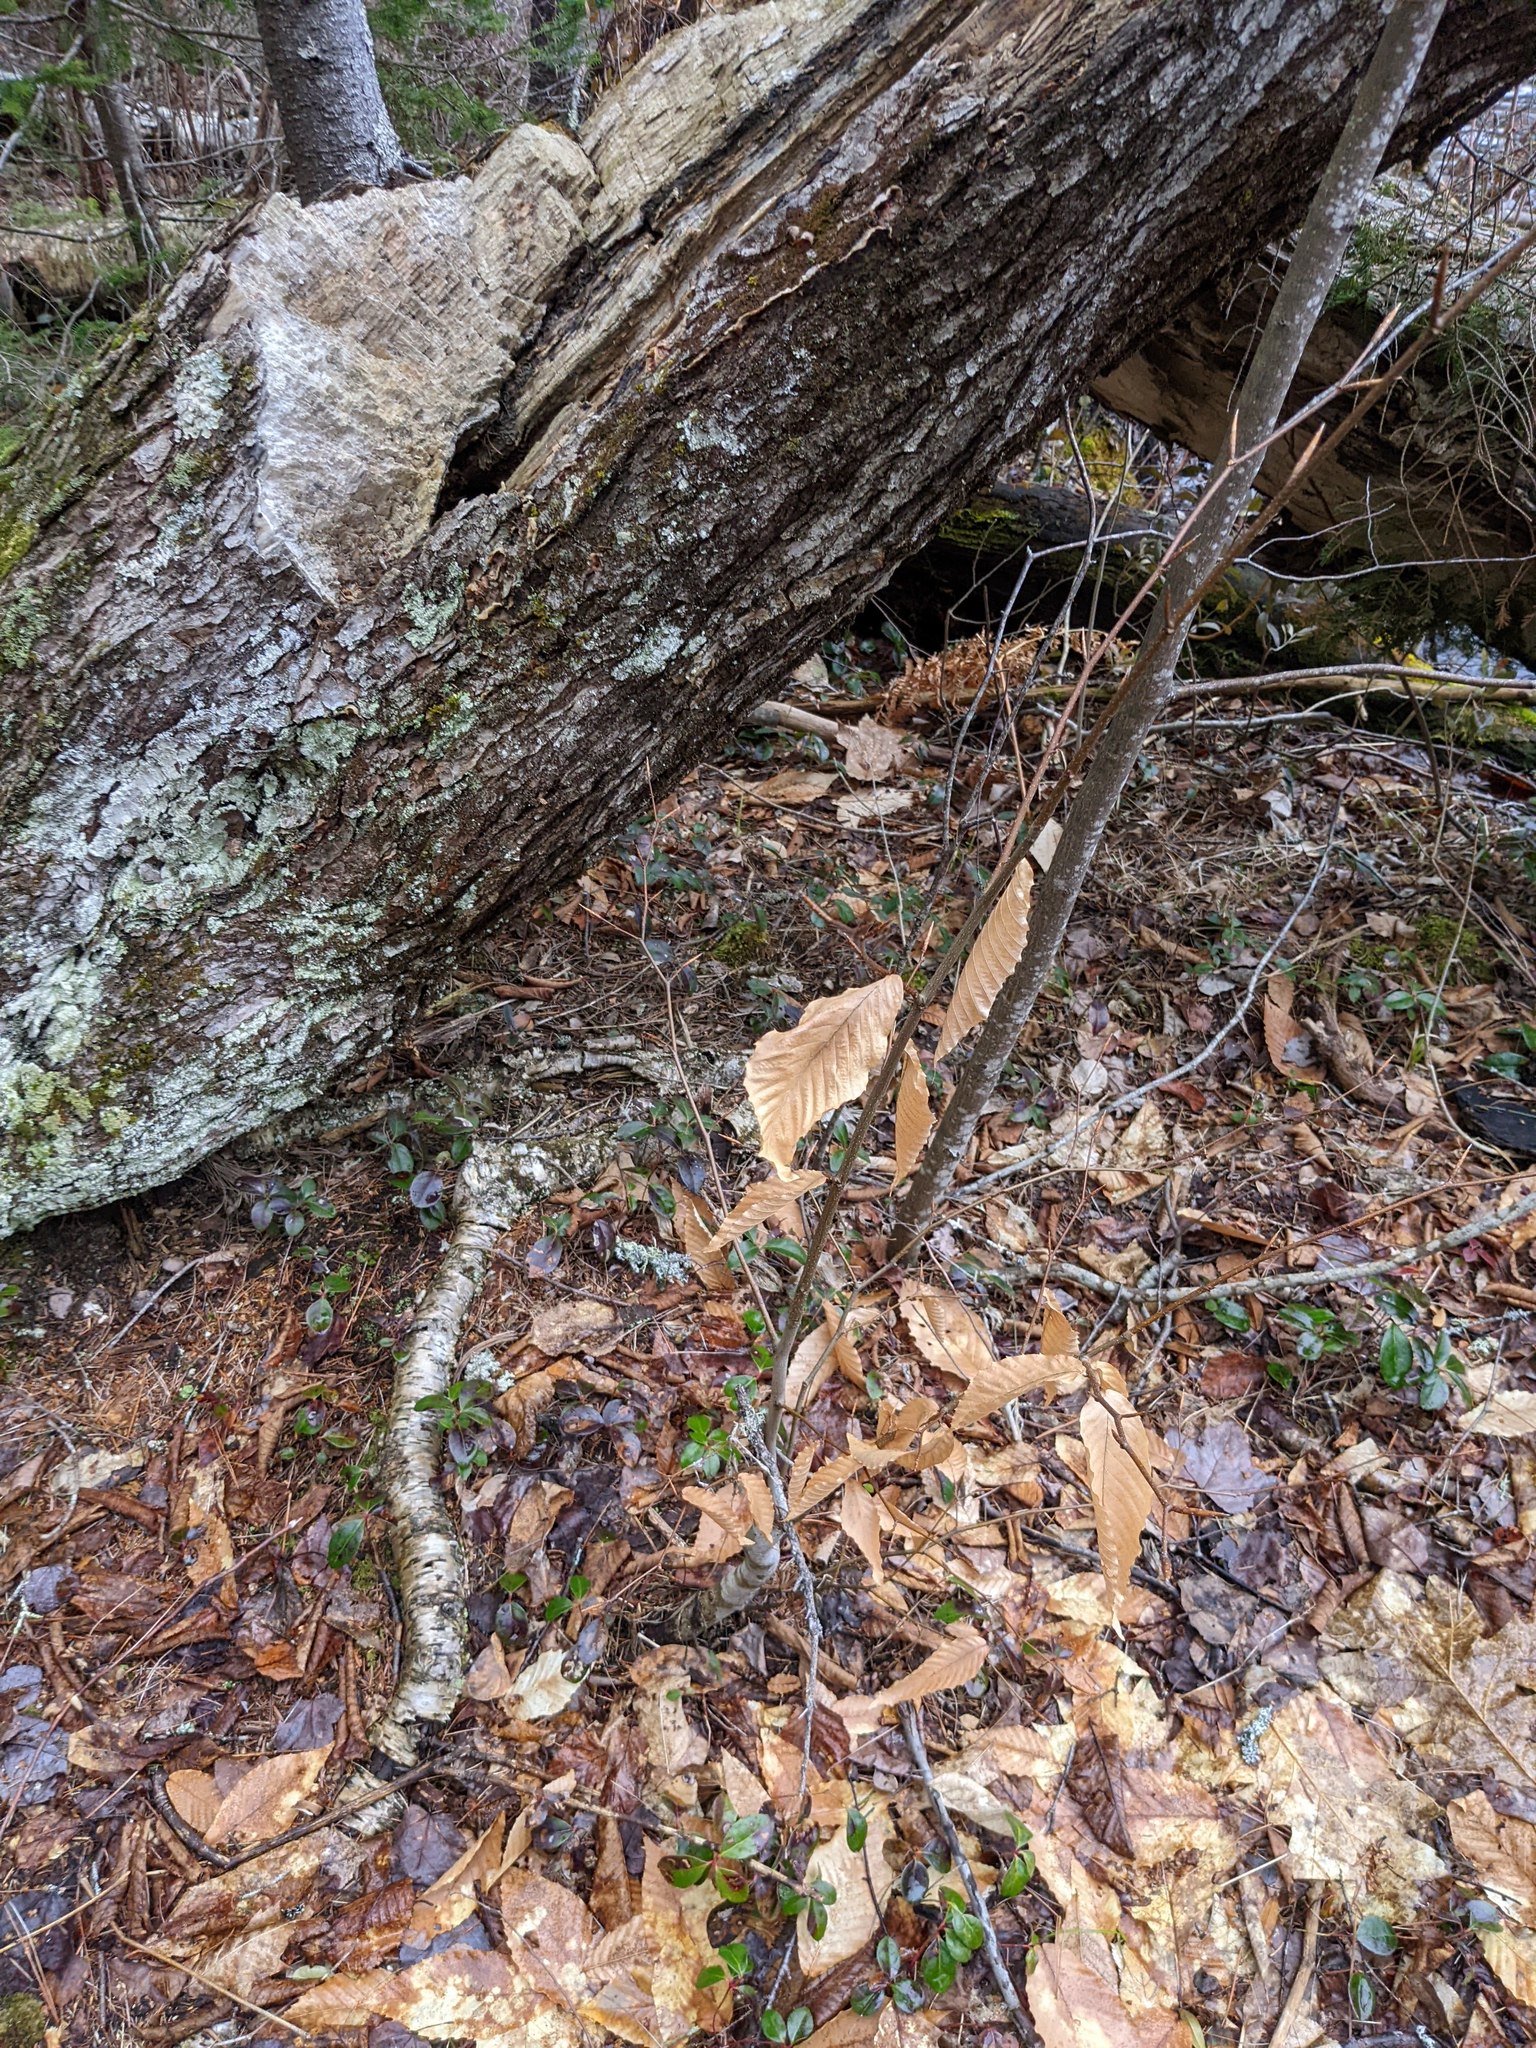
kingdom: Plantae
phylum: Tracheophyta
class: Magnoliopsida
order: Fagales
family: Fagaceae
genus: Fagus
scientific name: Fagus grandifolia
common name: American beech
